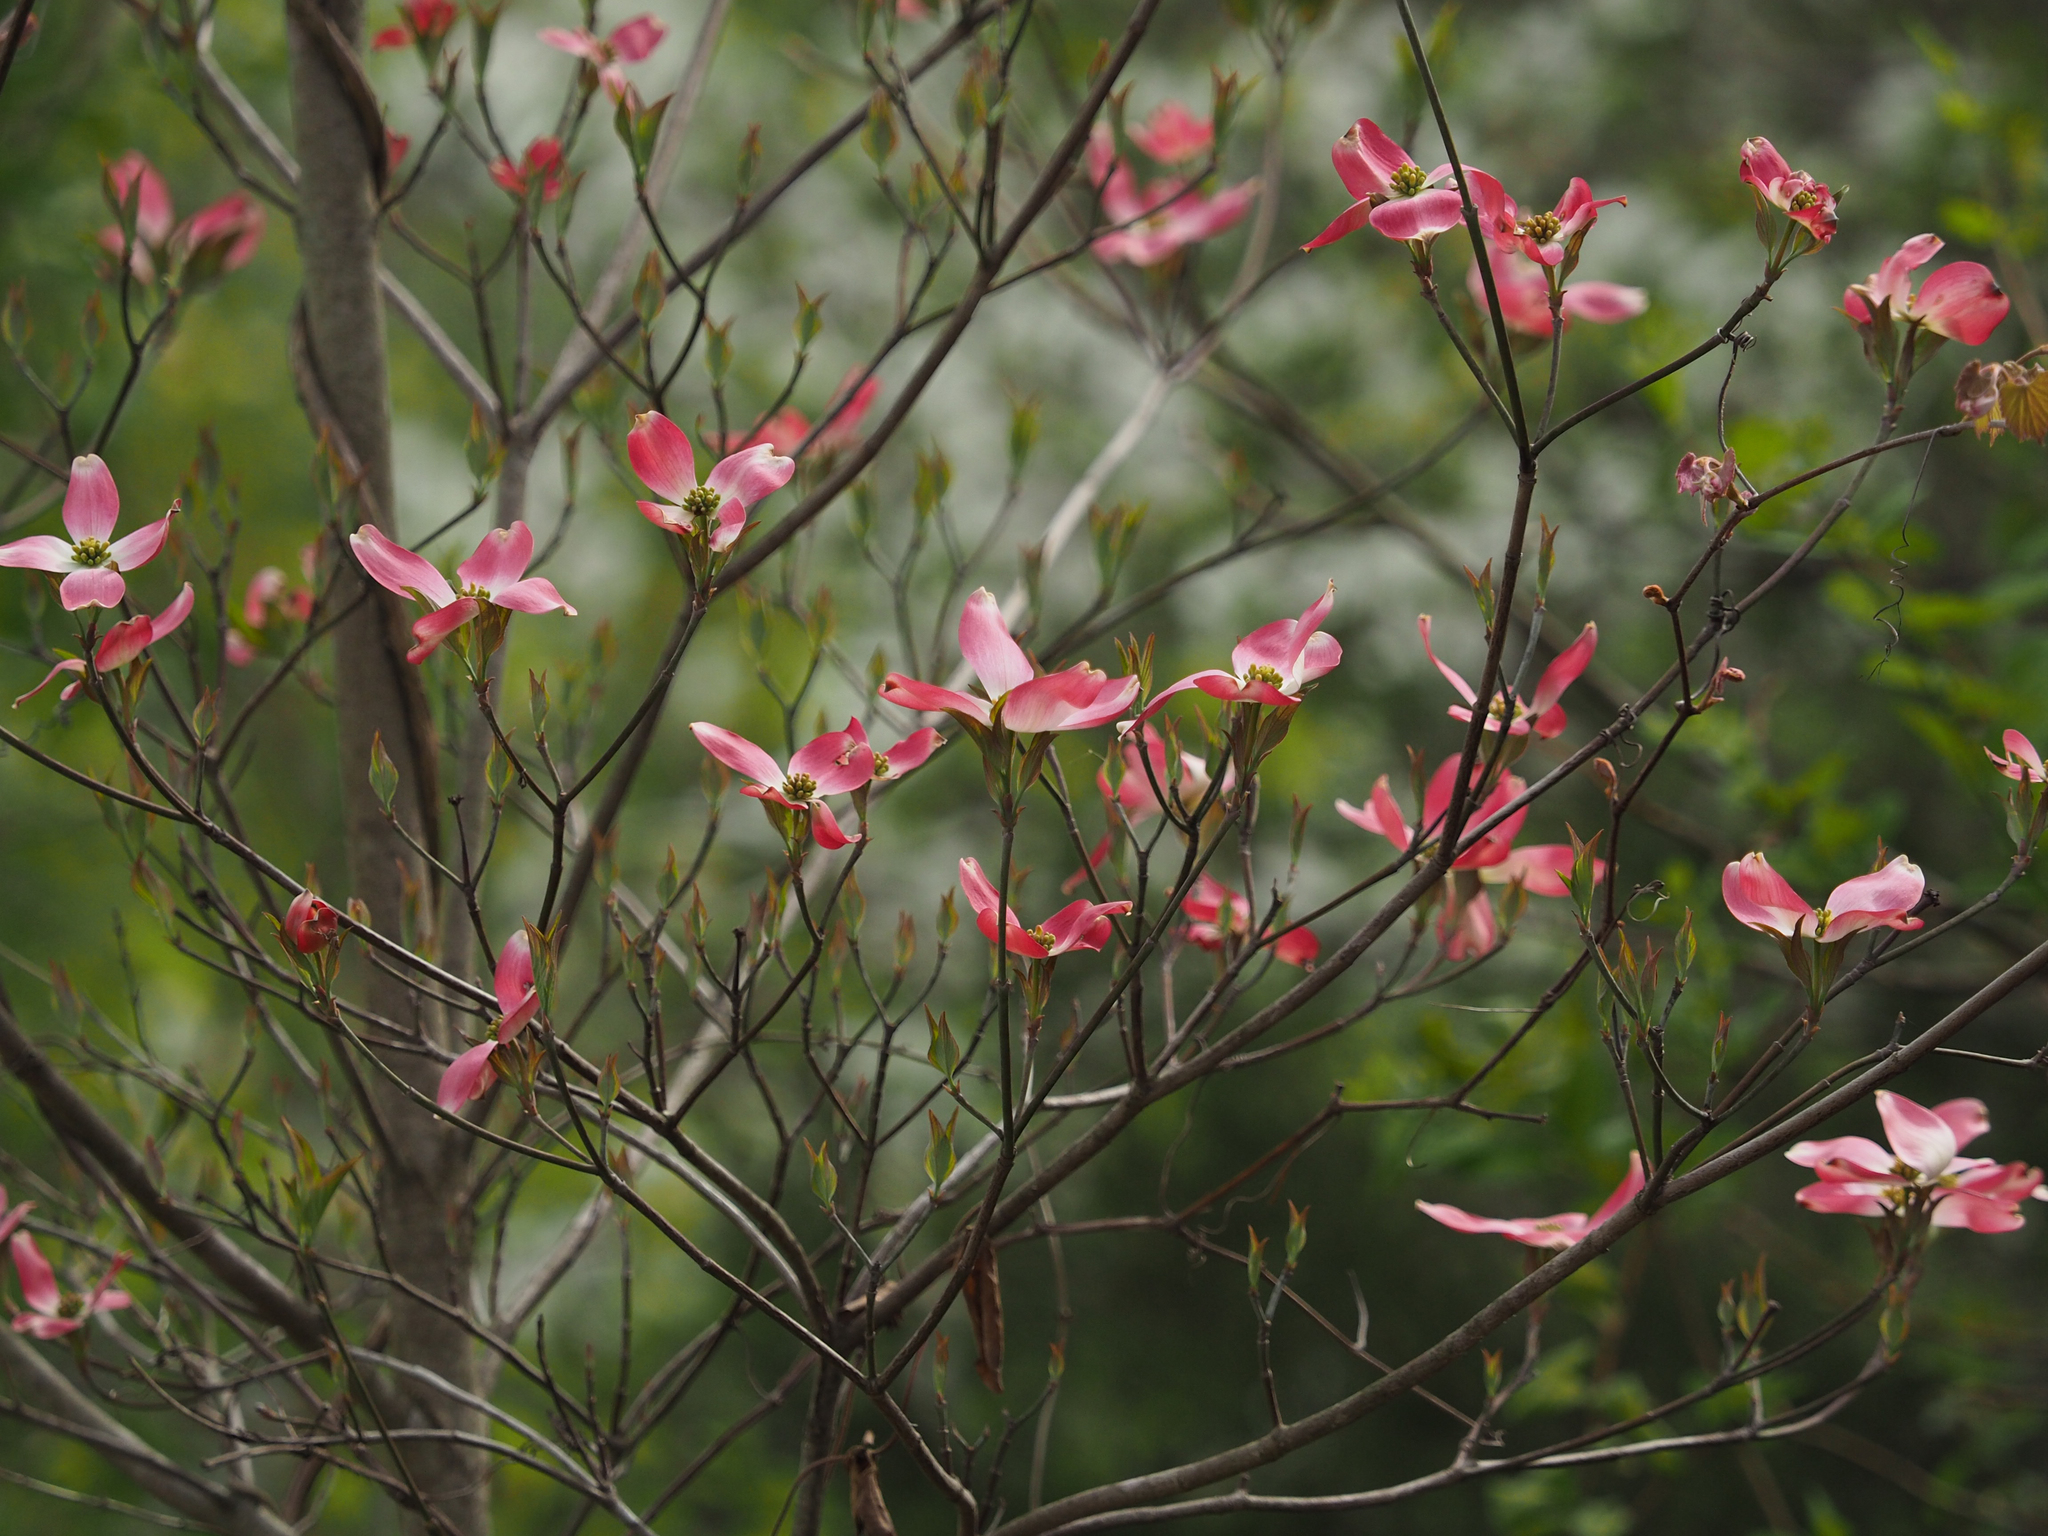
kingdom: Plantae
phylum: Tracheophyta
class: Magnoliopsida
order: Cornales
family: Cornaceae
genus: Cornus
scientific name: Cornus florida
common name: Flowering dogwood
